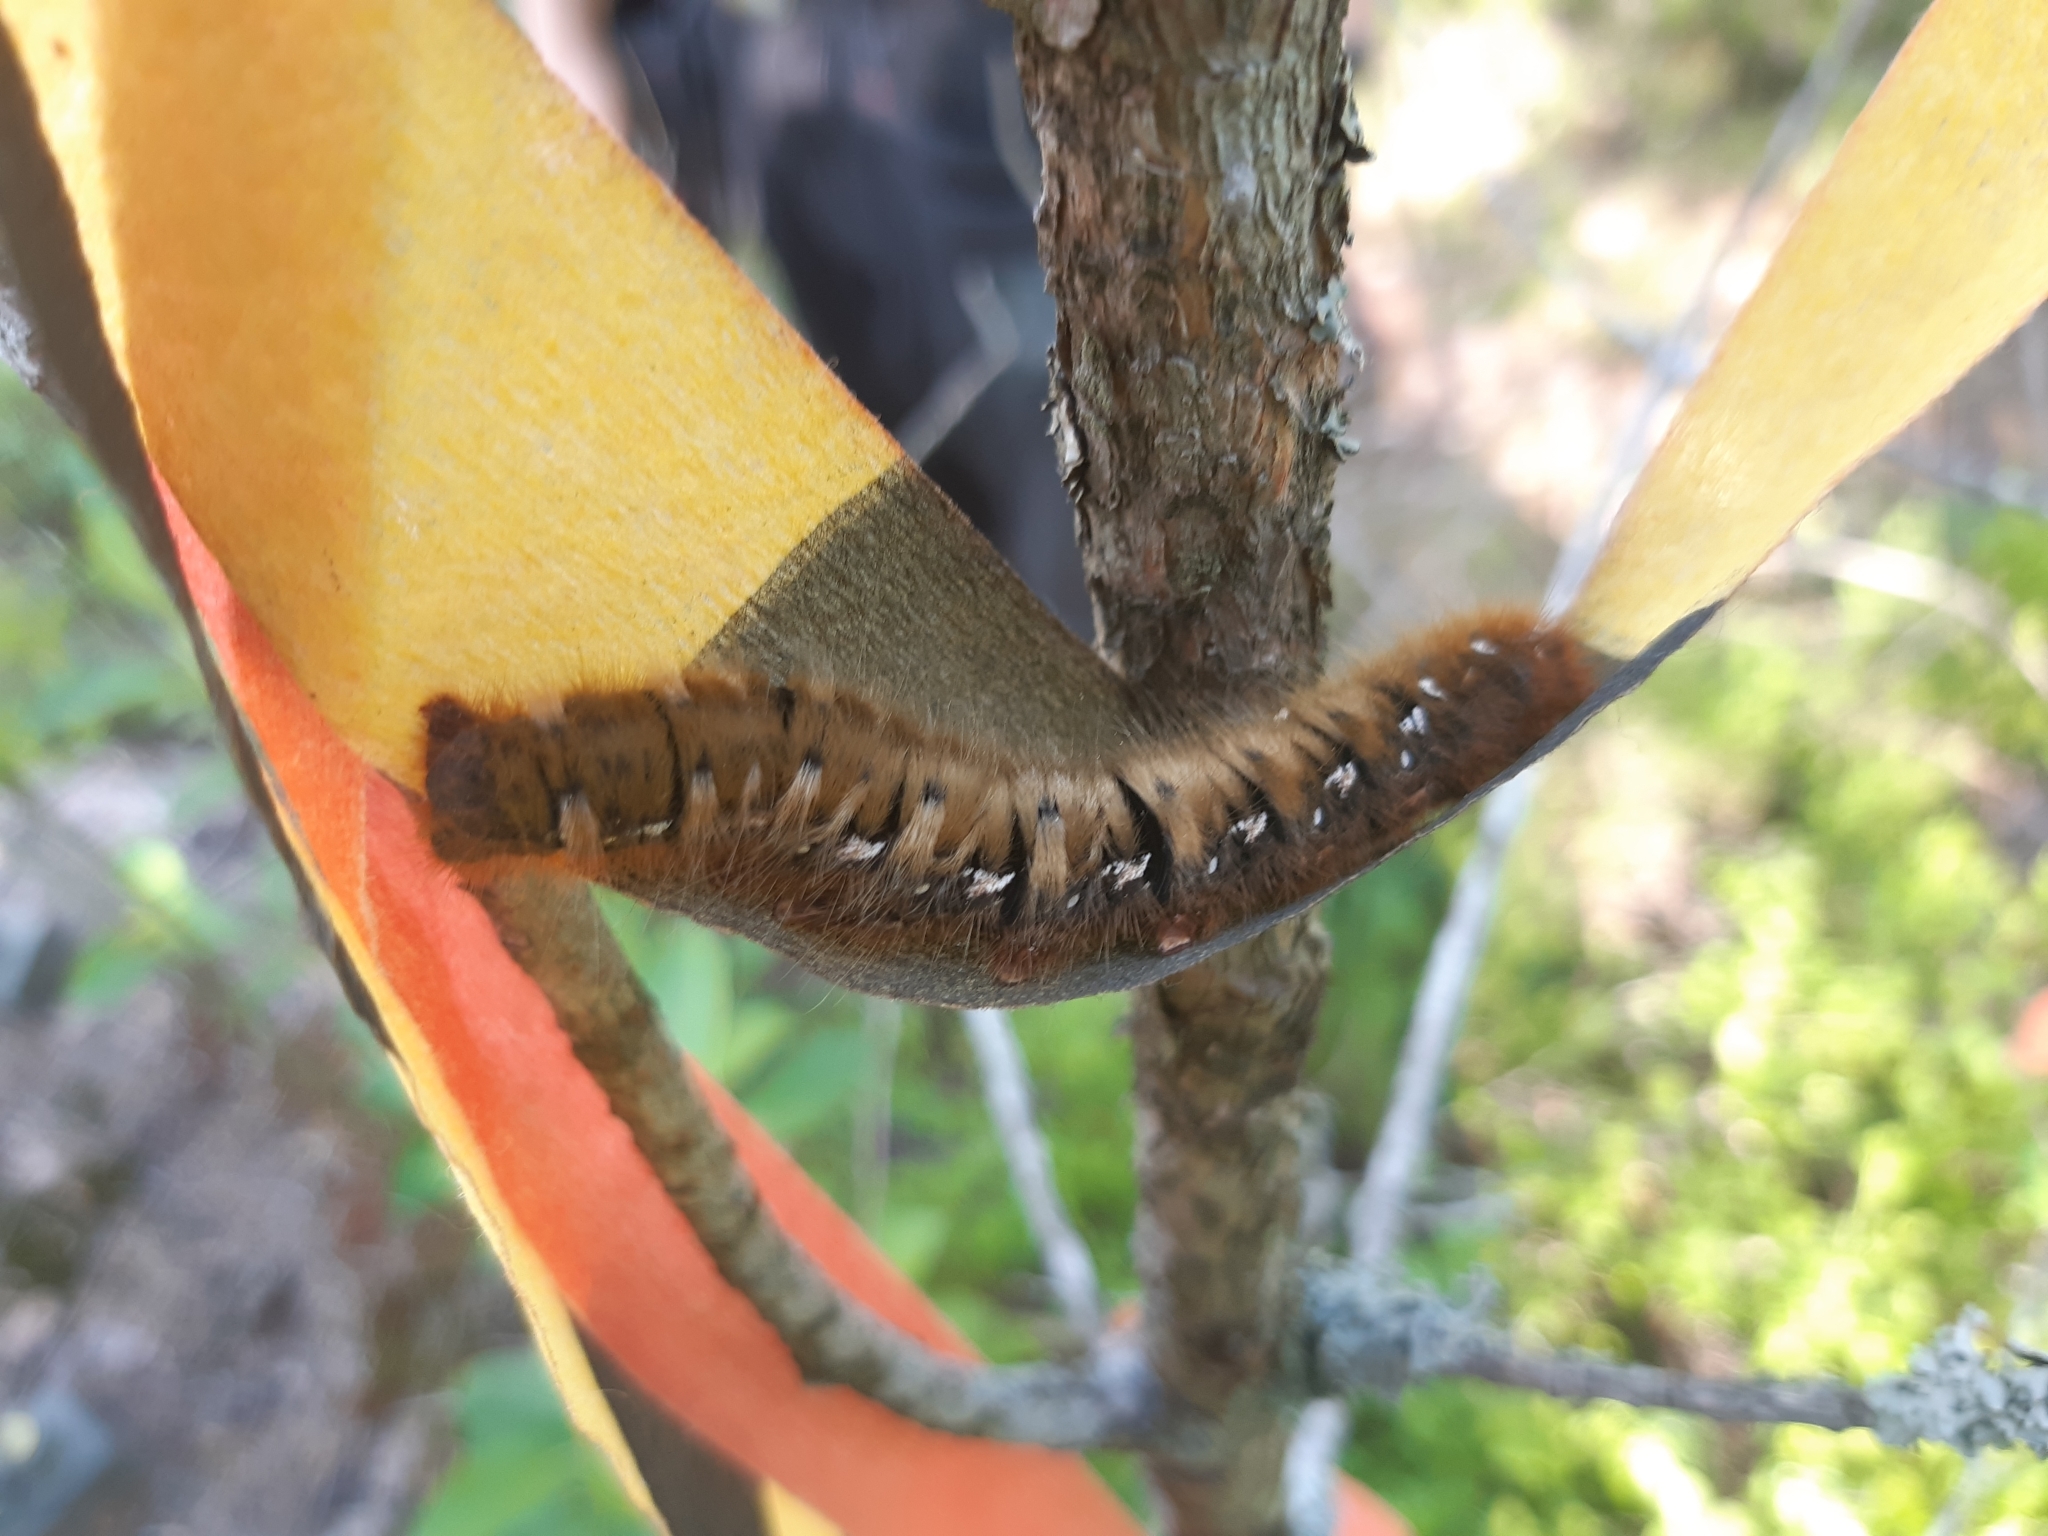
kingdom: Animalia
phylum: Arthropoda
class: Insecta
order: Lepidoptera
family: Lasiocampidae
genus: Lasiocampa
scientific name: Lasiocampa quercus
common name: Oak eggar
